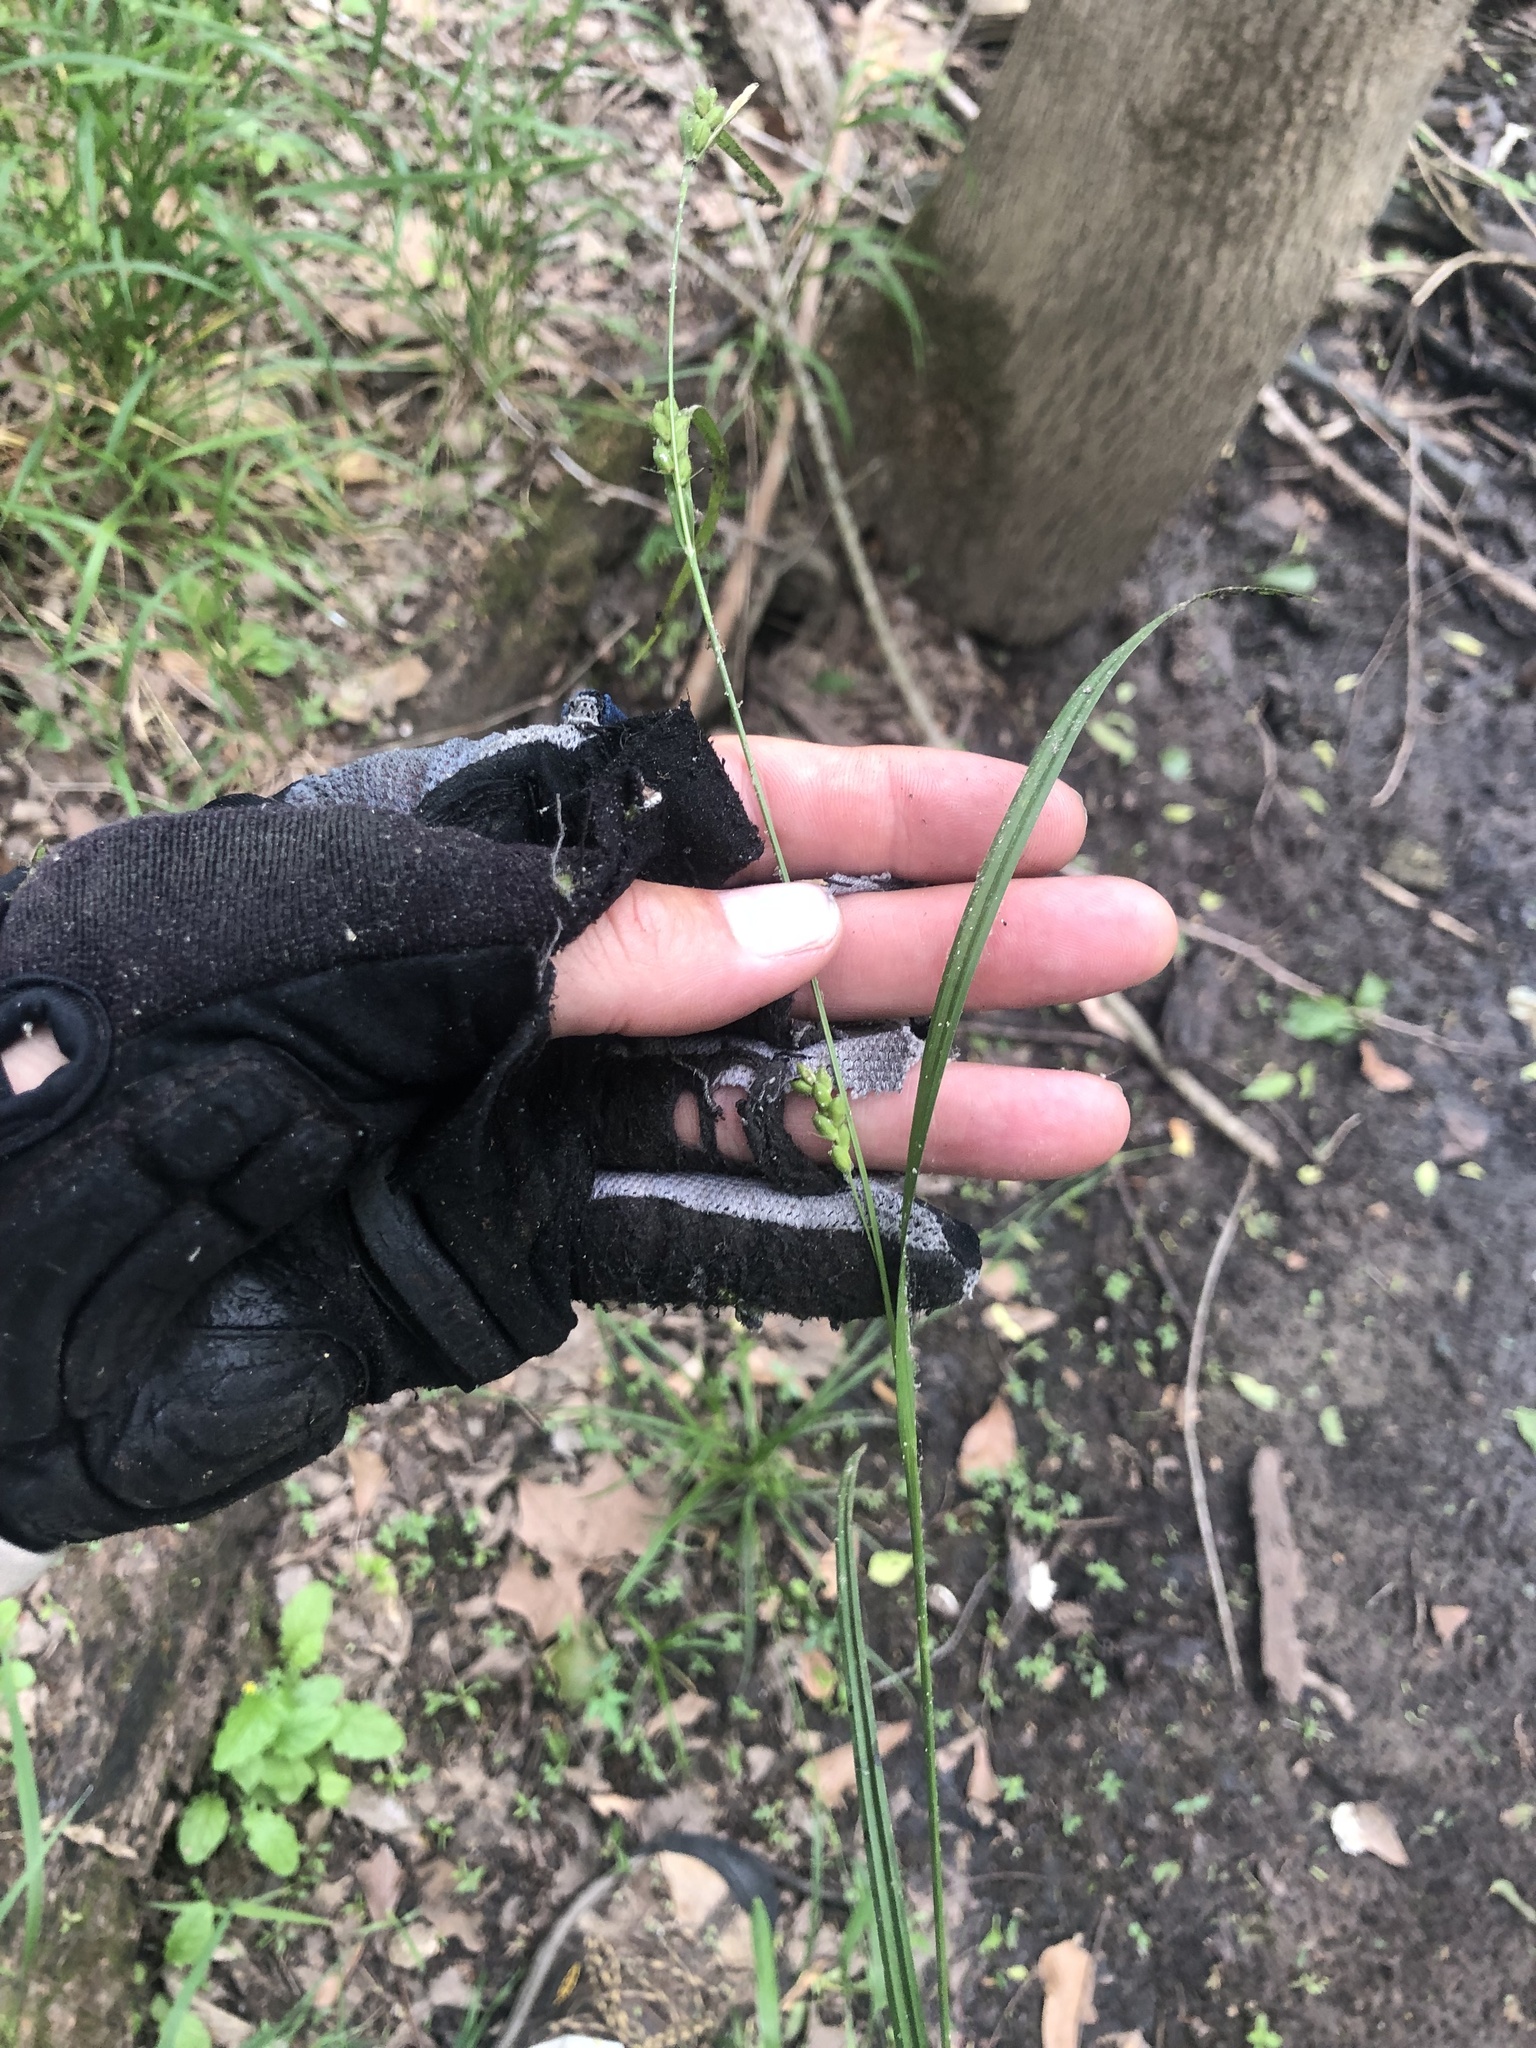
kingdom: Plantae
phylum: Tracheophyta
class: Liliopsida
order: Poales
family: Cyperaceae
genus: Carex
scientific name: Carex corrugata
